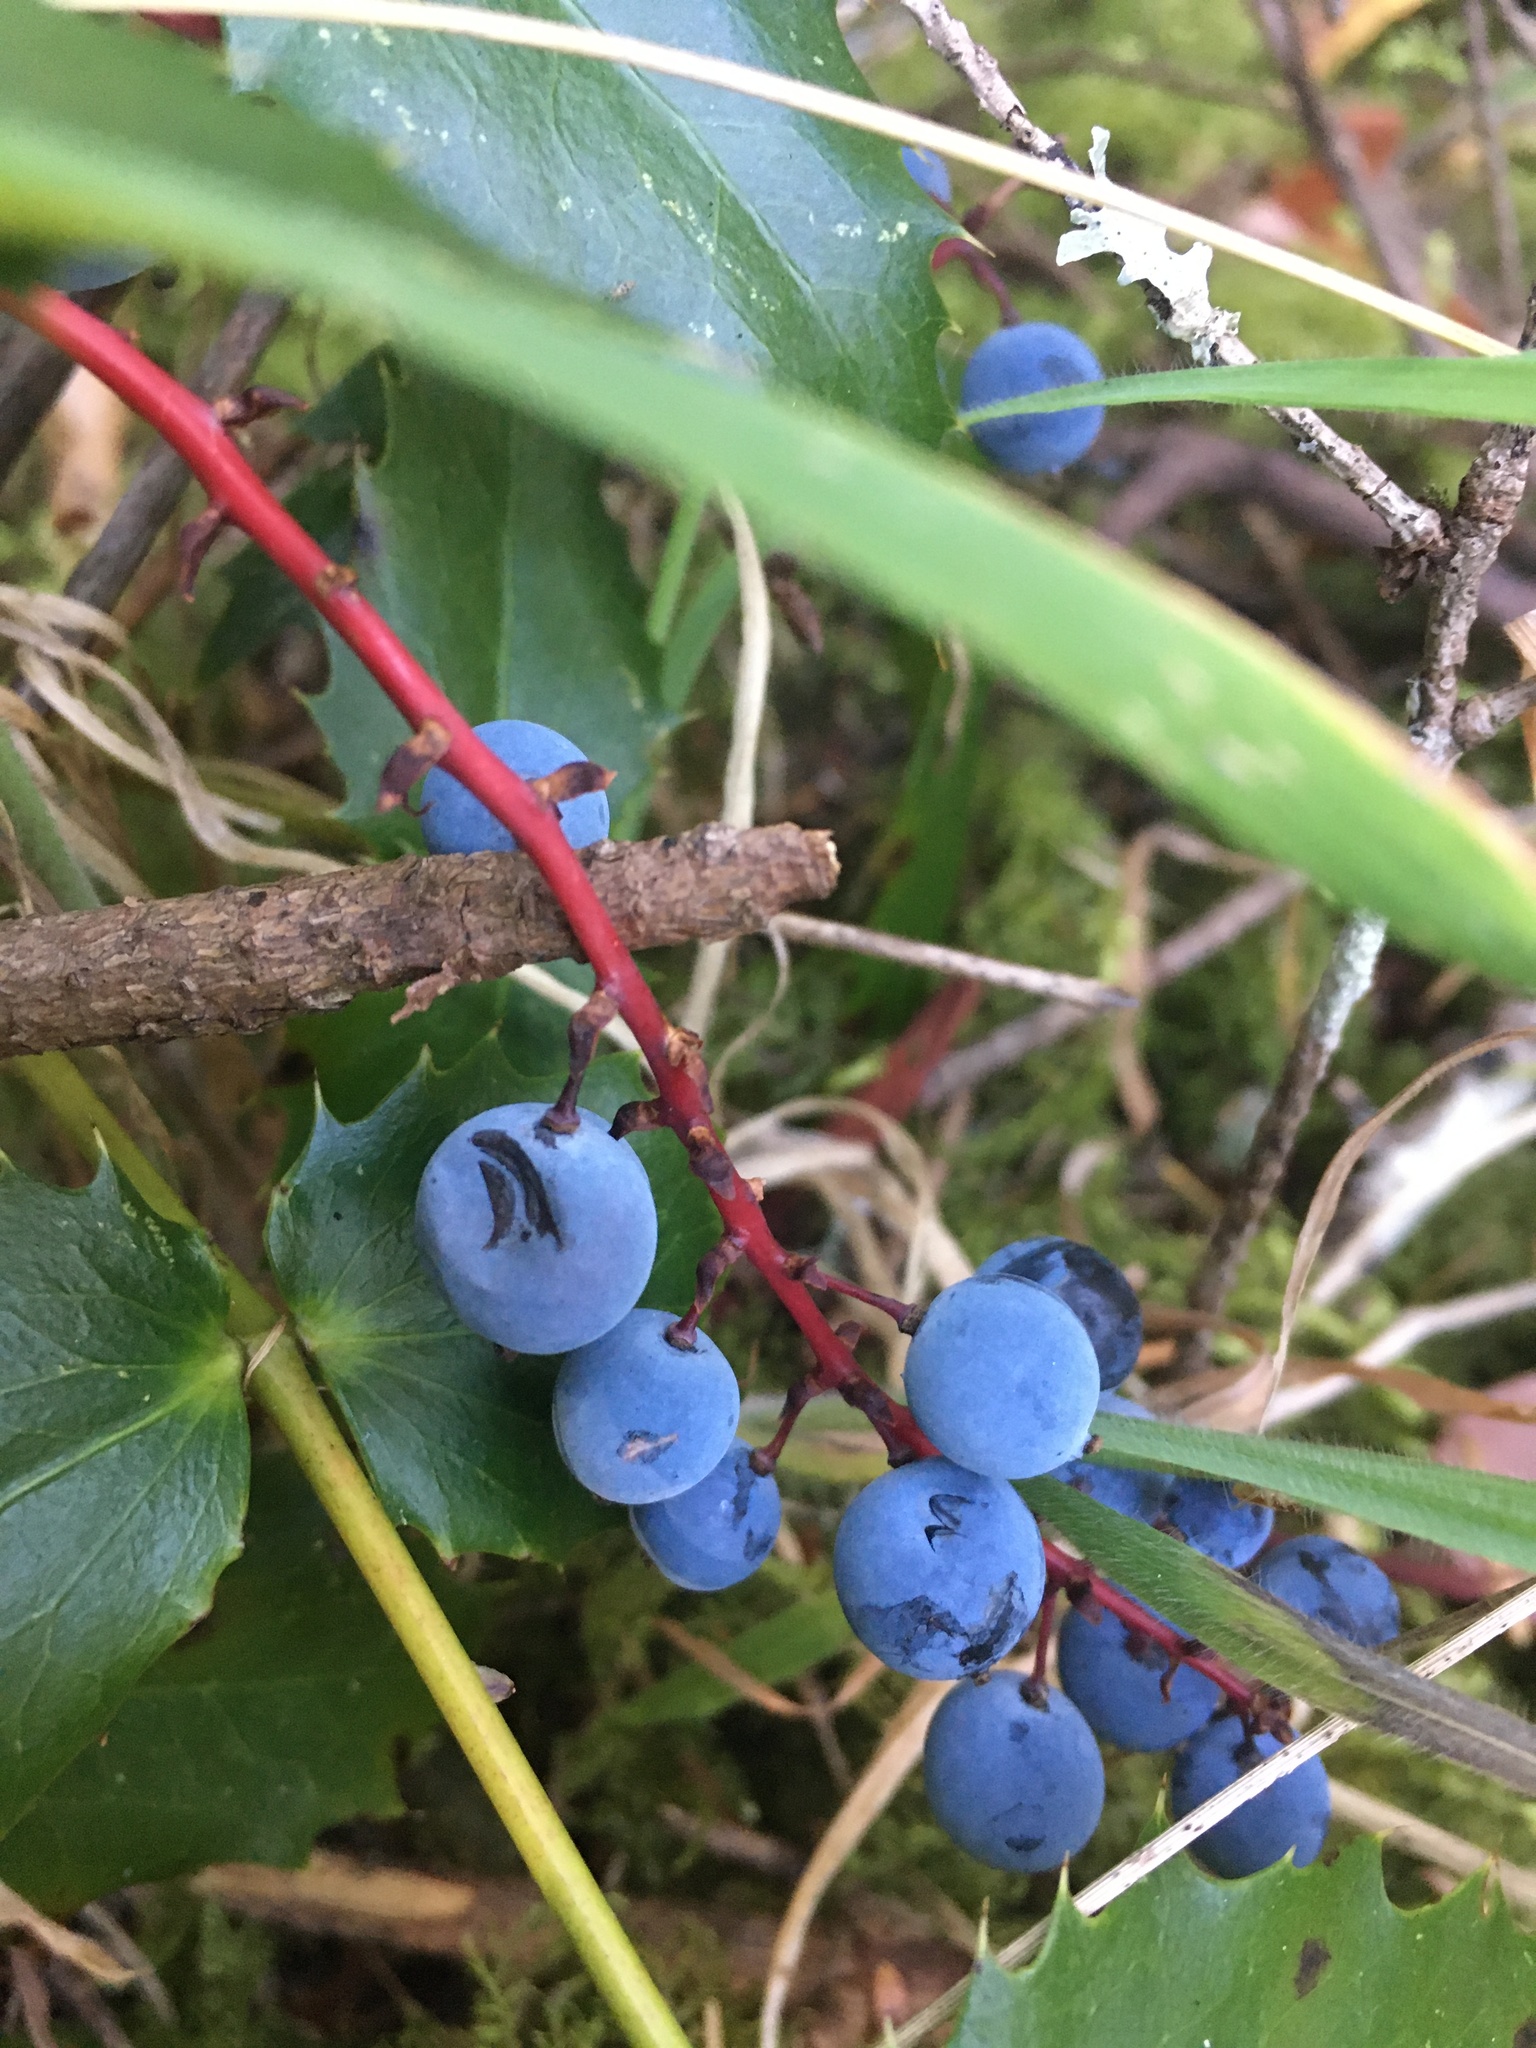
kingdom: Plantae
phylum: Tracheophyta
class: Magnoliopsida
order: Ranunculales
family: Berberidaceae
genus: Mahonia
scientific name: Mahonia nervosa
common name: Cascade oregon-grape
